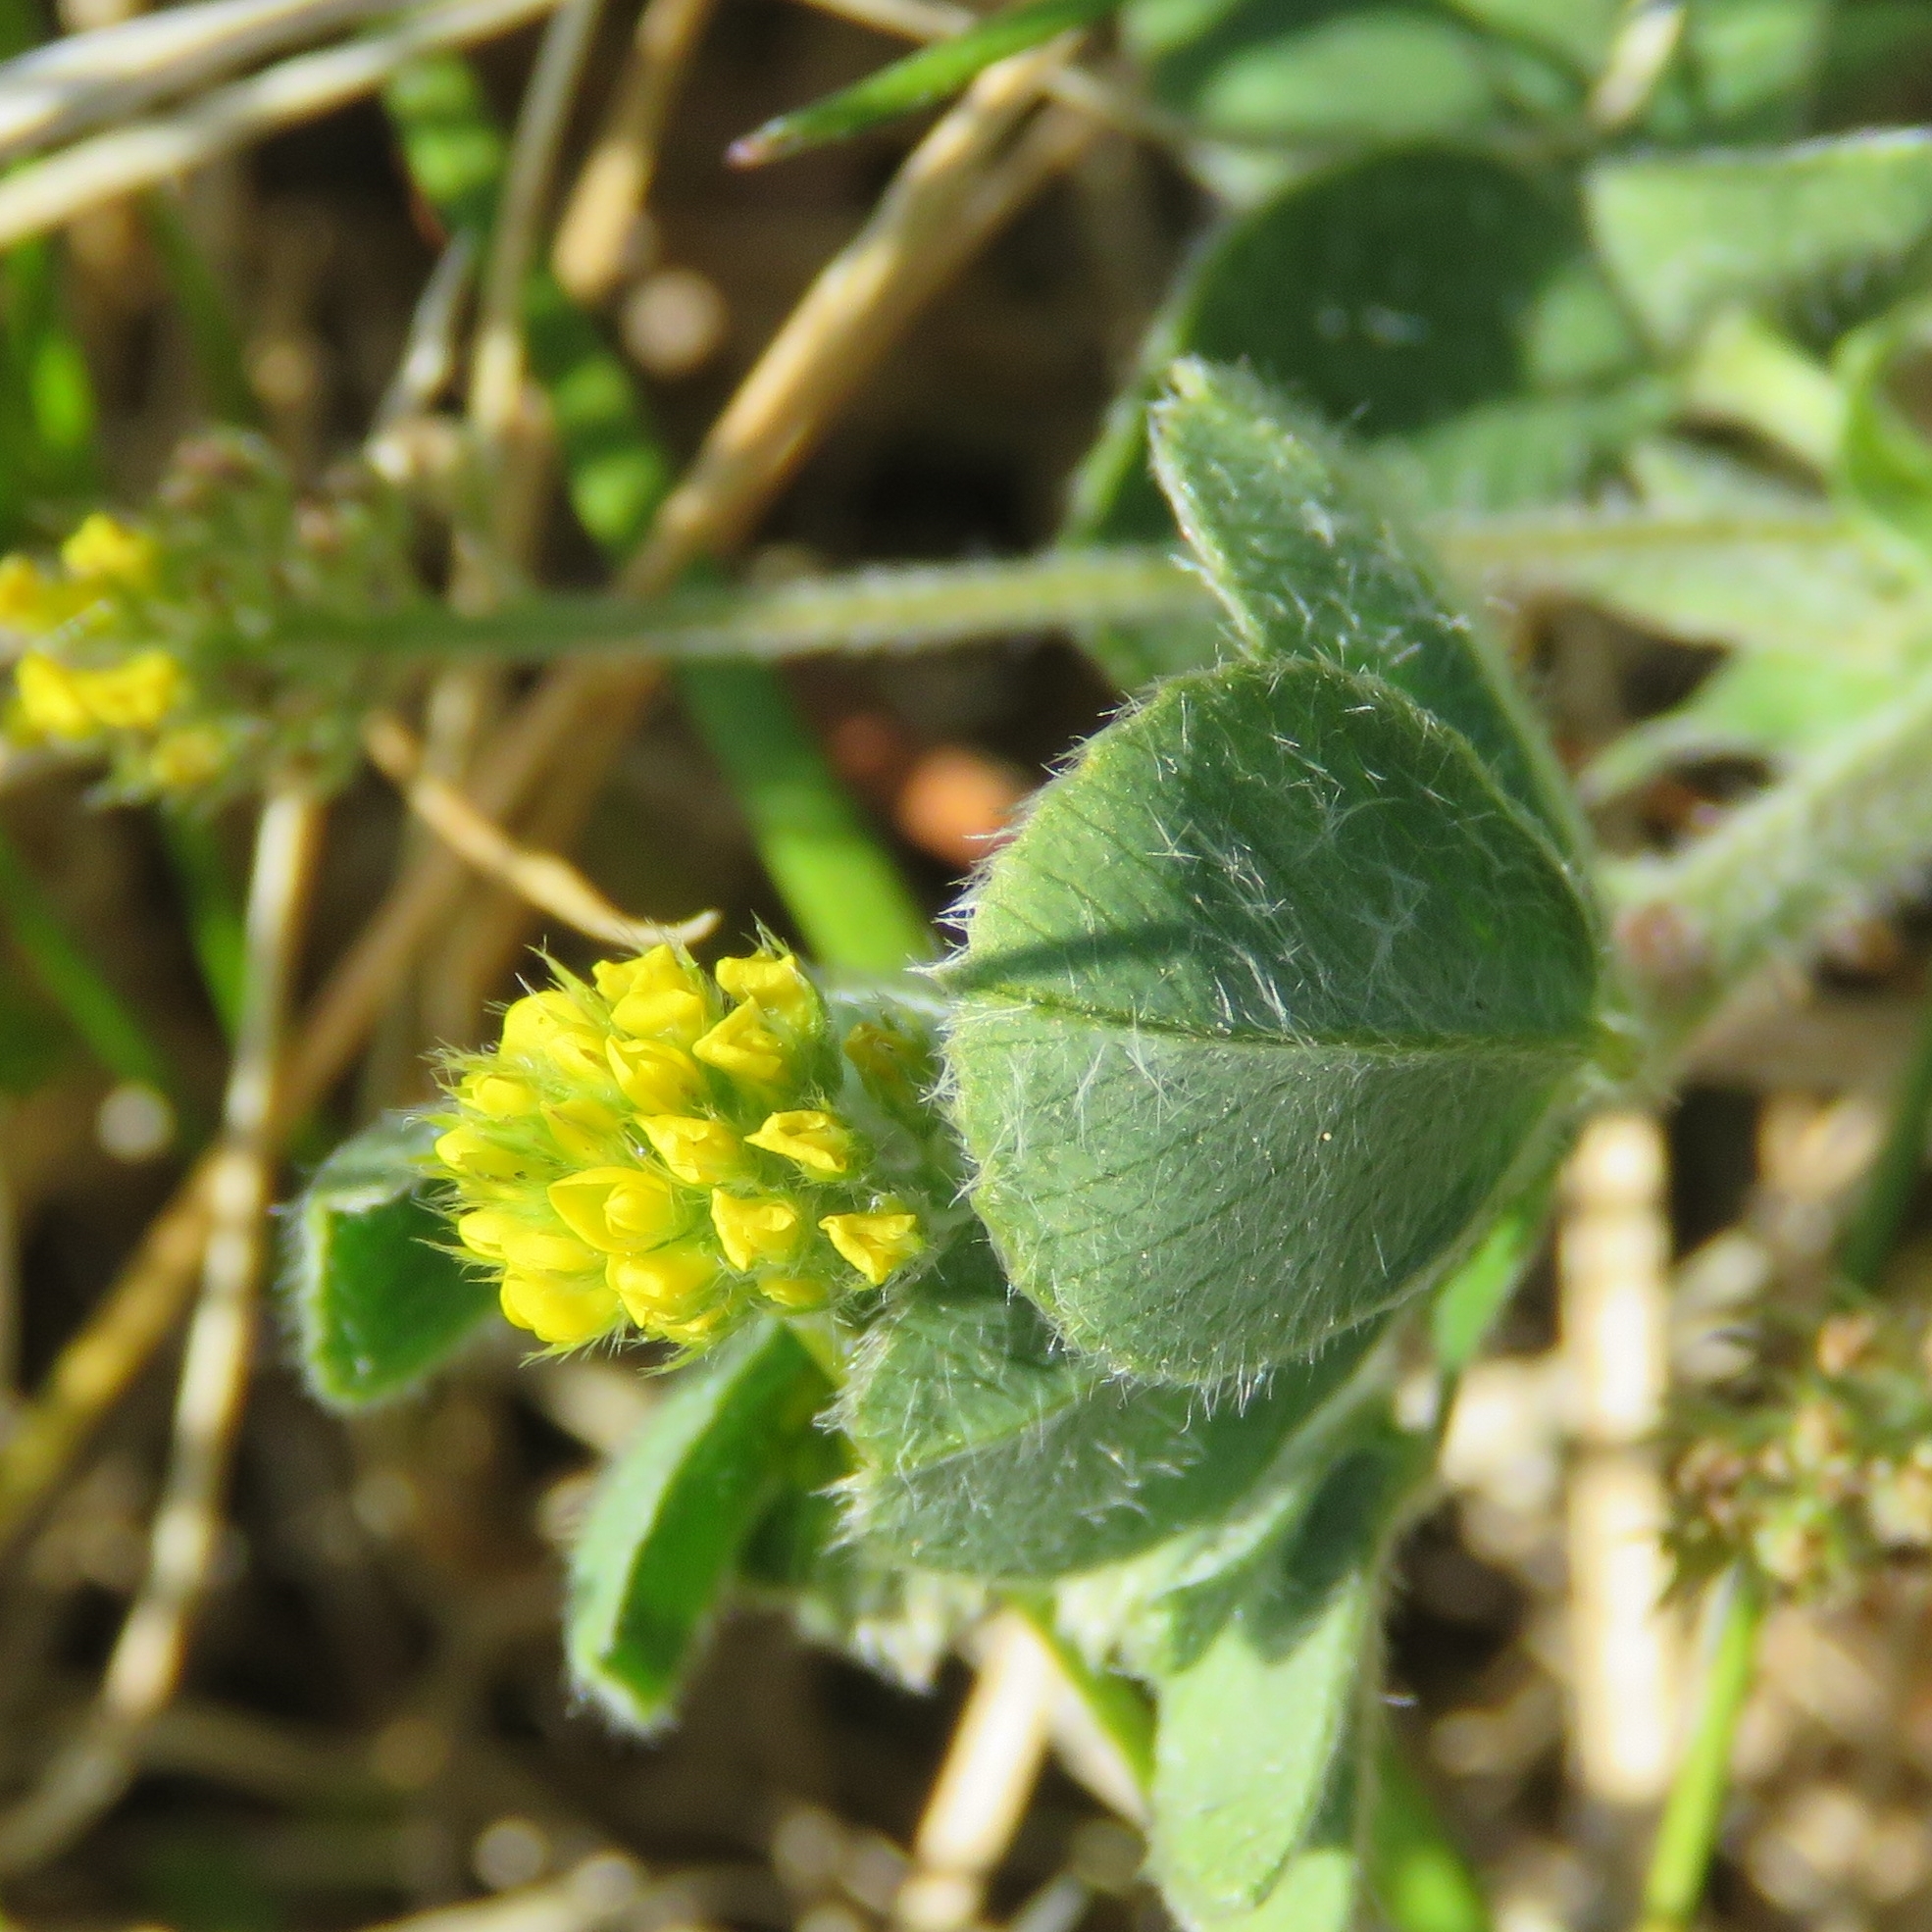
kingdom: Plantae
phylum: Tracheophyta
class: Magnoliopsida
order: Fabales
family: Fabaceae
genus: Trifolium
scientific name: Trifolium dubium
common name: Suckling clover
